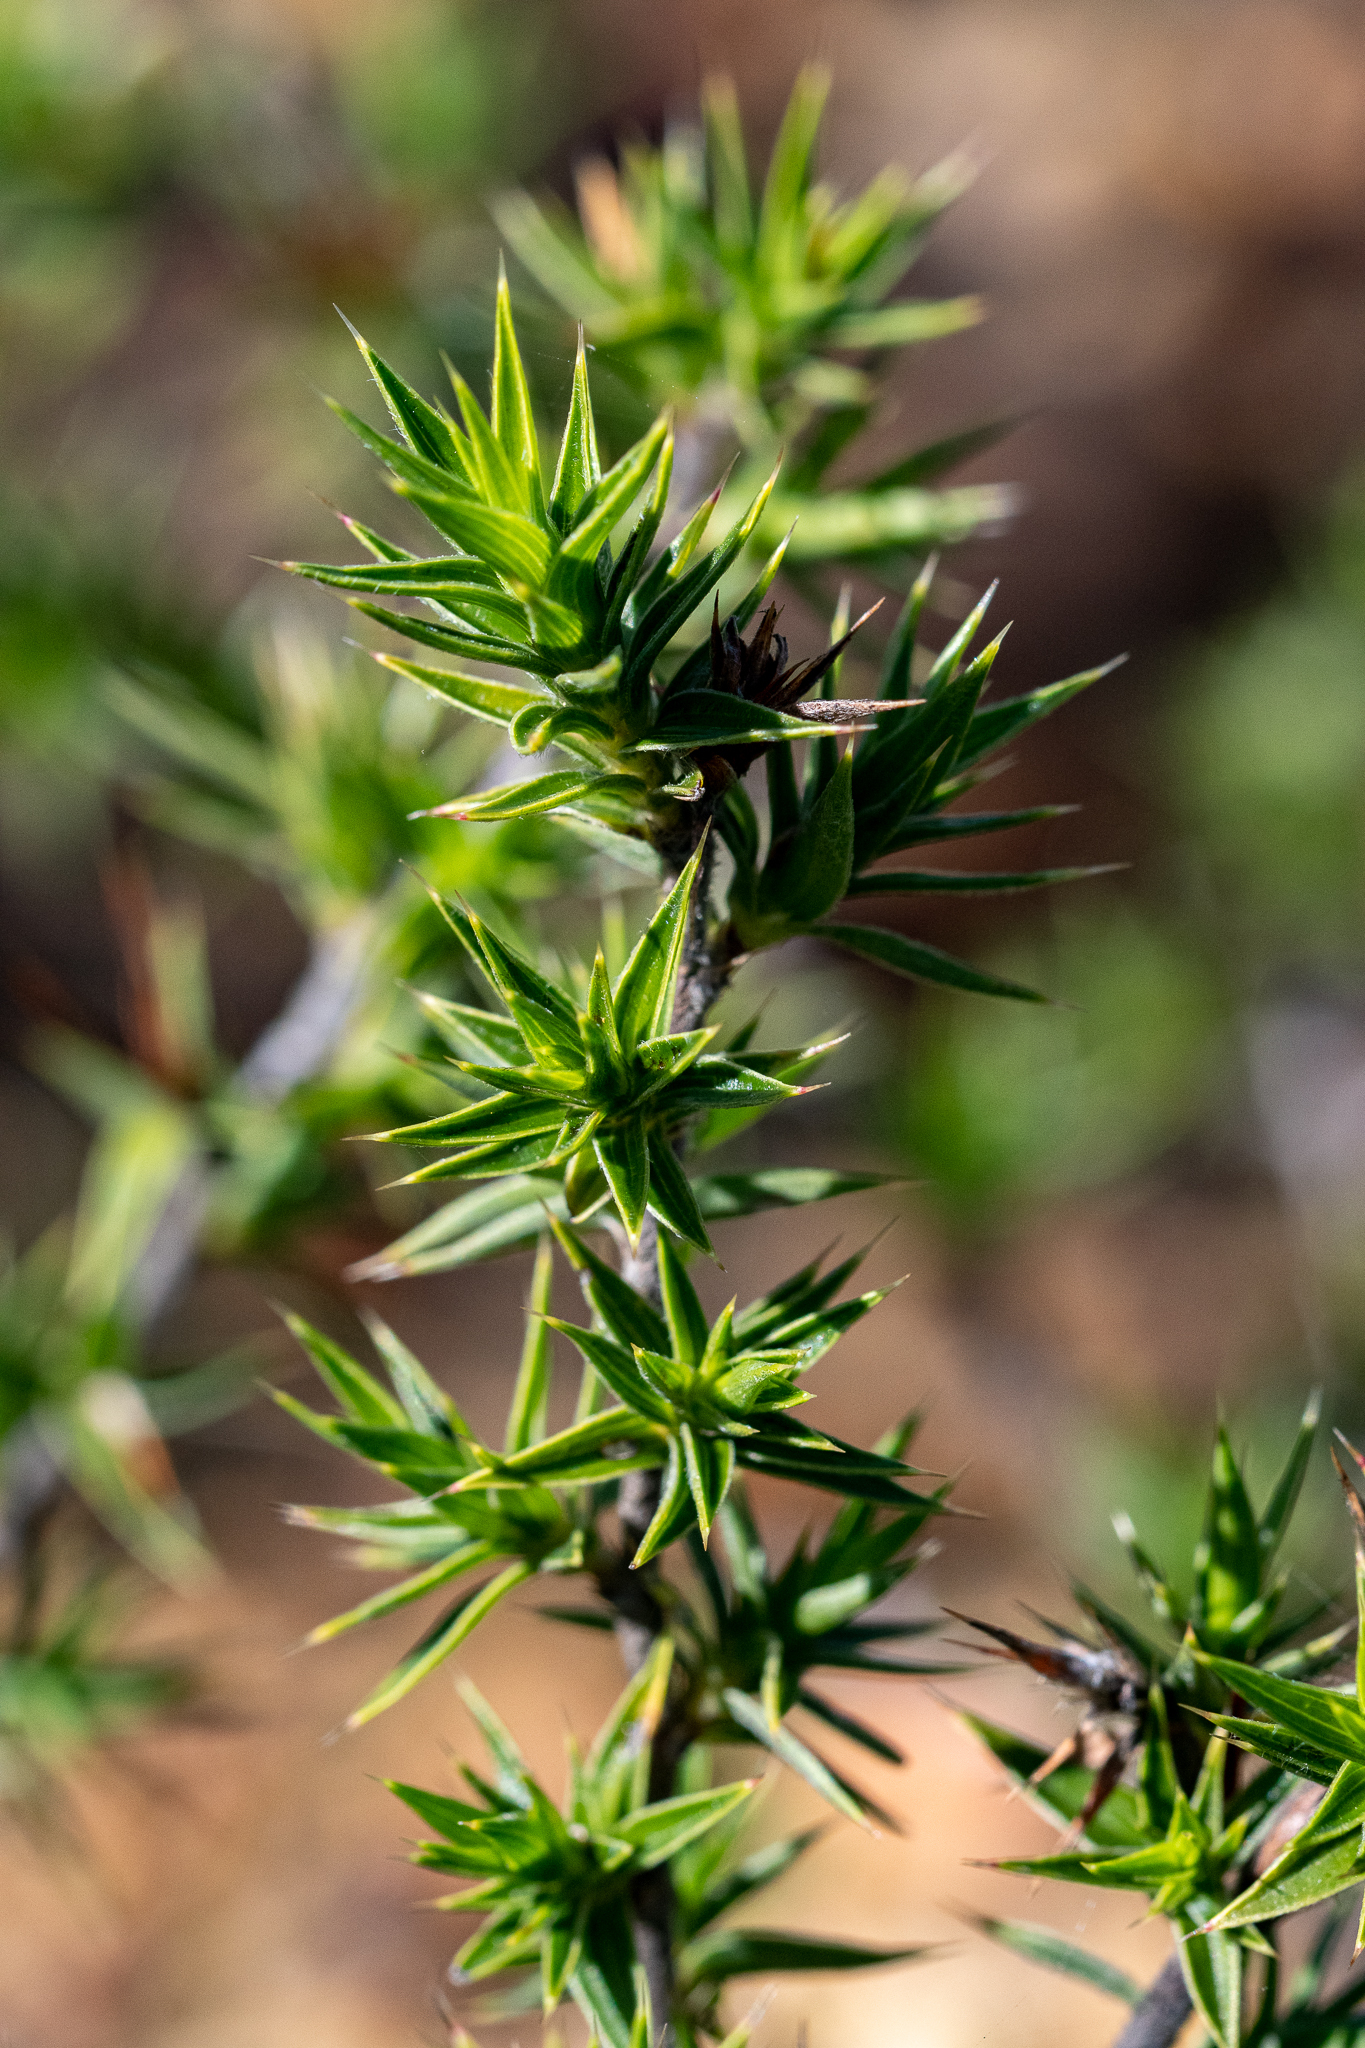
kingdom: Plantae
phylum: Tracheophyta
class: Magnoliopsida
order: Rosales
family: Rosaceae
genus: Cliffortia
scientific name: Cliffortia ruscifolia
